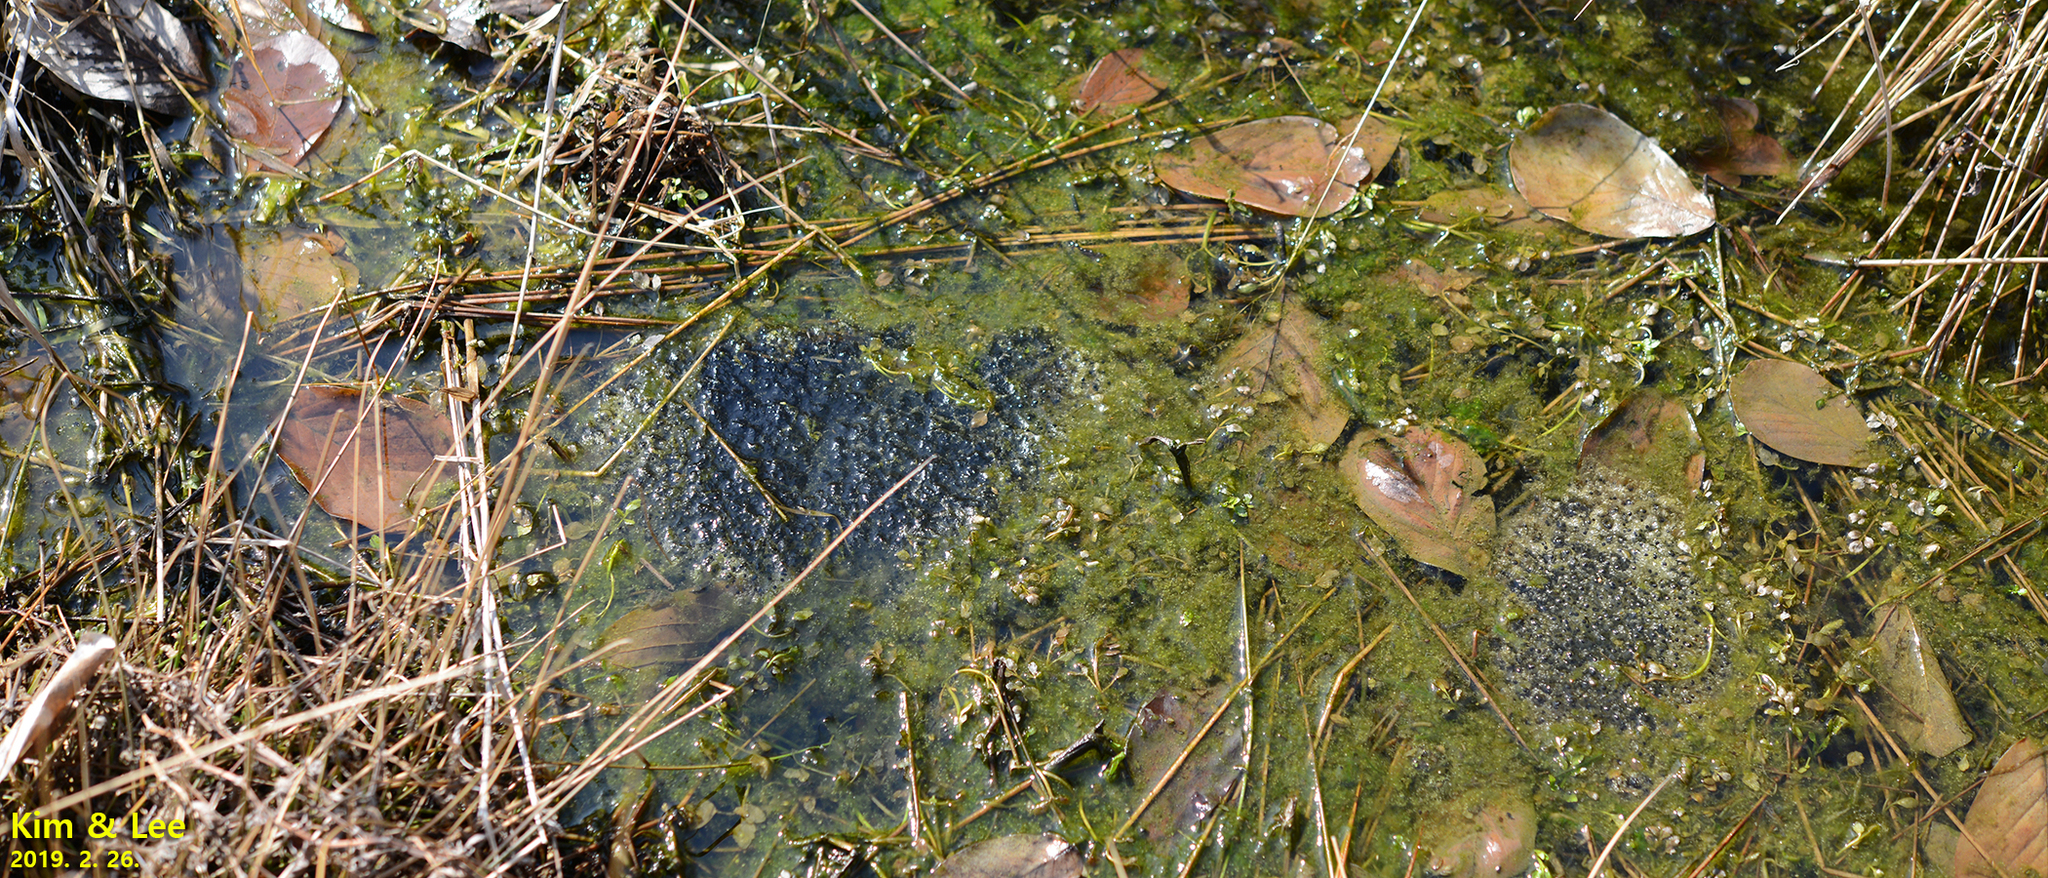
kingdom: Animalia
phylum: Chordata
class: Amphibia
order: Anura
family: Ranidae
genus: Rana
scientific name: Rana uenoi
